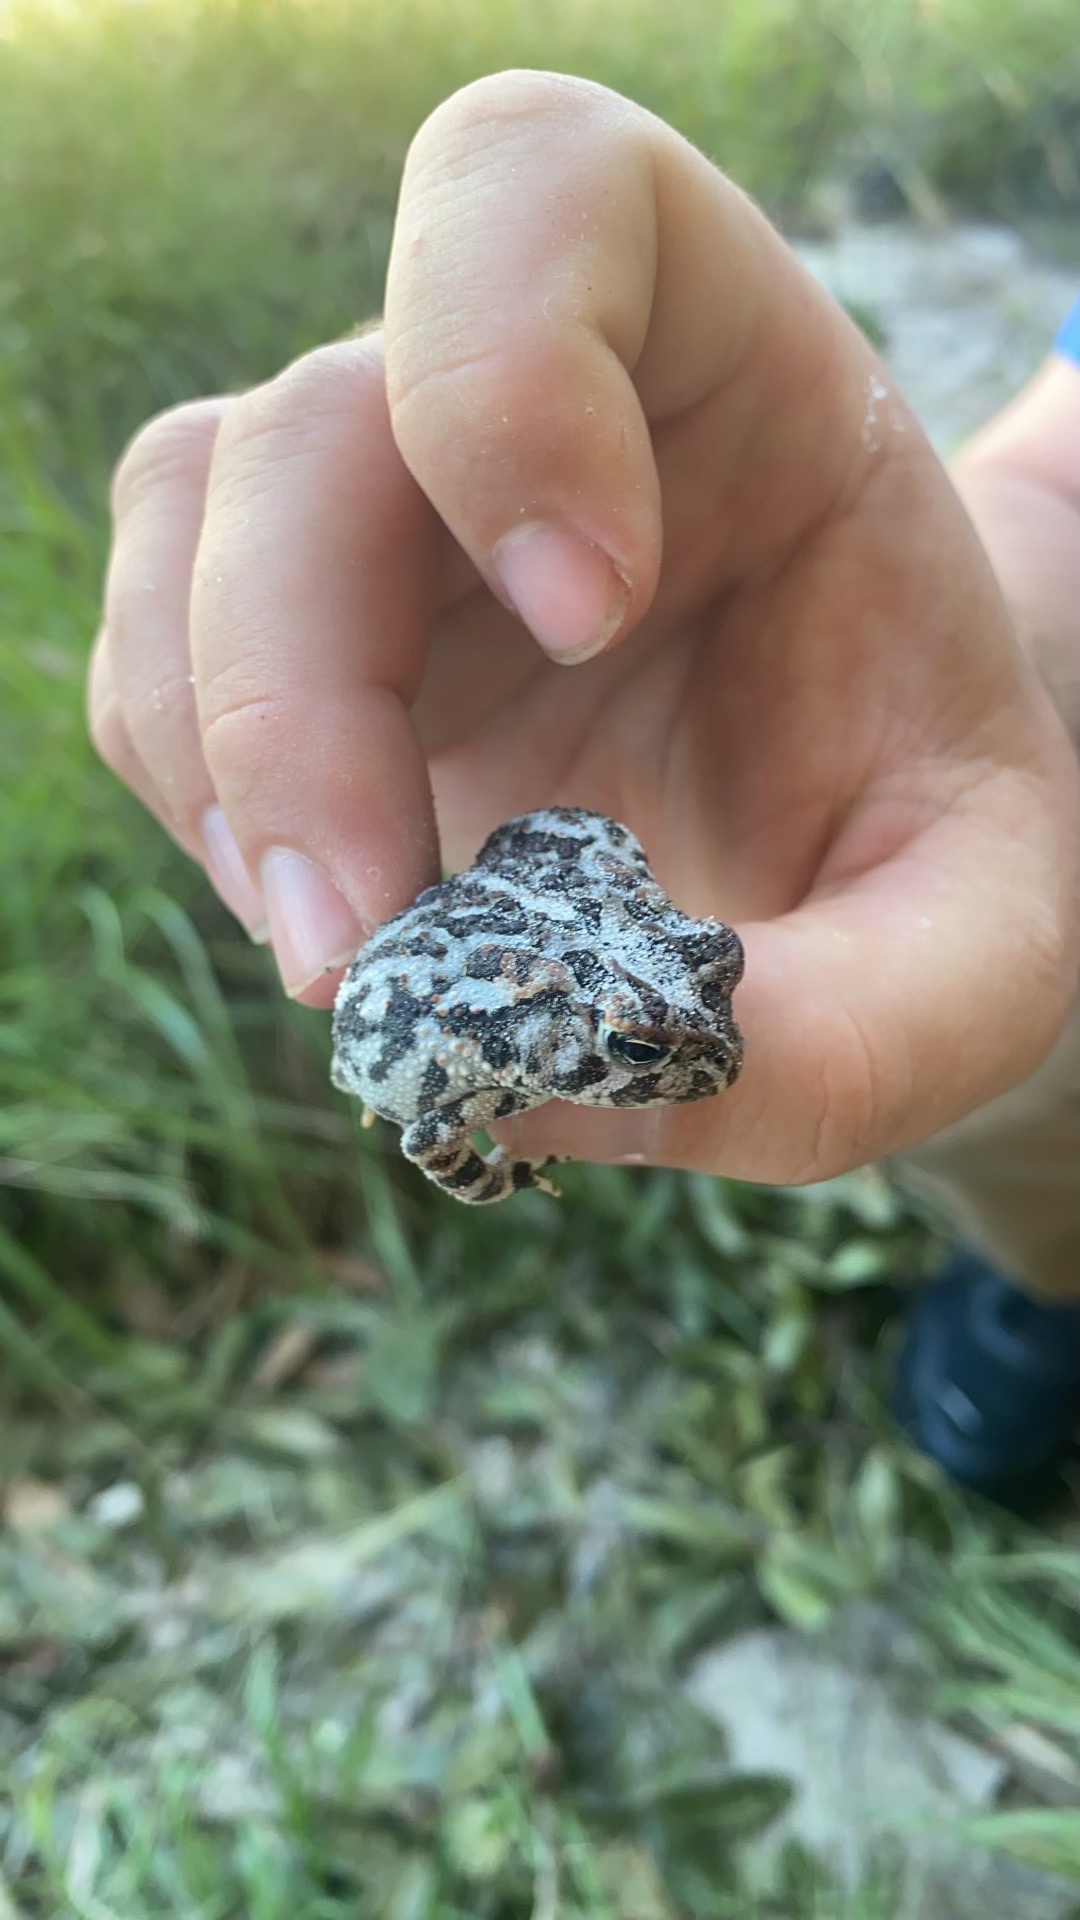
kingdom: Animalia
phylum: Chordata
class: Amphibia
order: Anura
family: Bufonidae
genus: Anaxyrus
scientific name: Anaxyrus terrestris
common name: Southern toad
